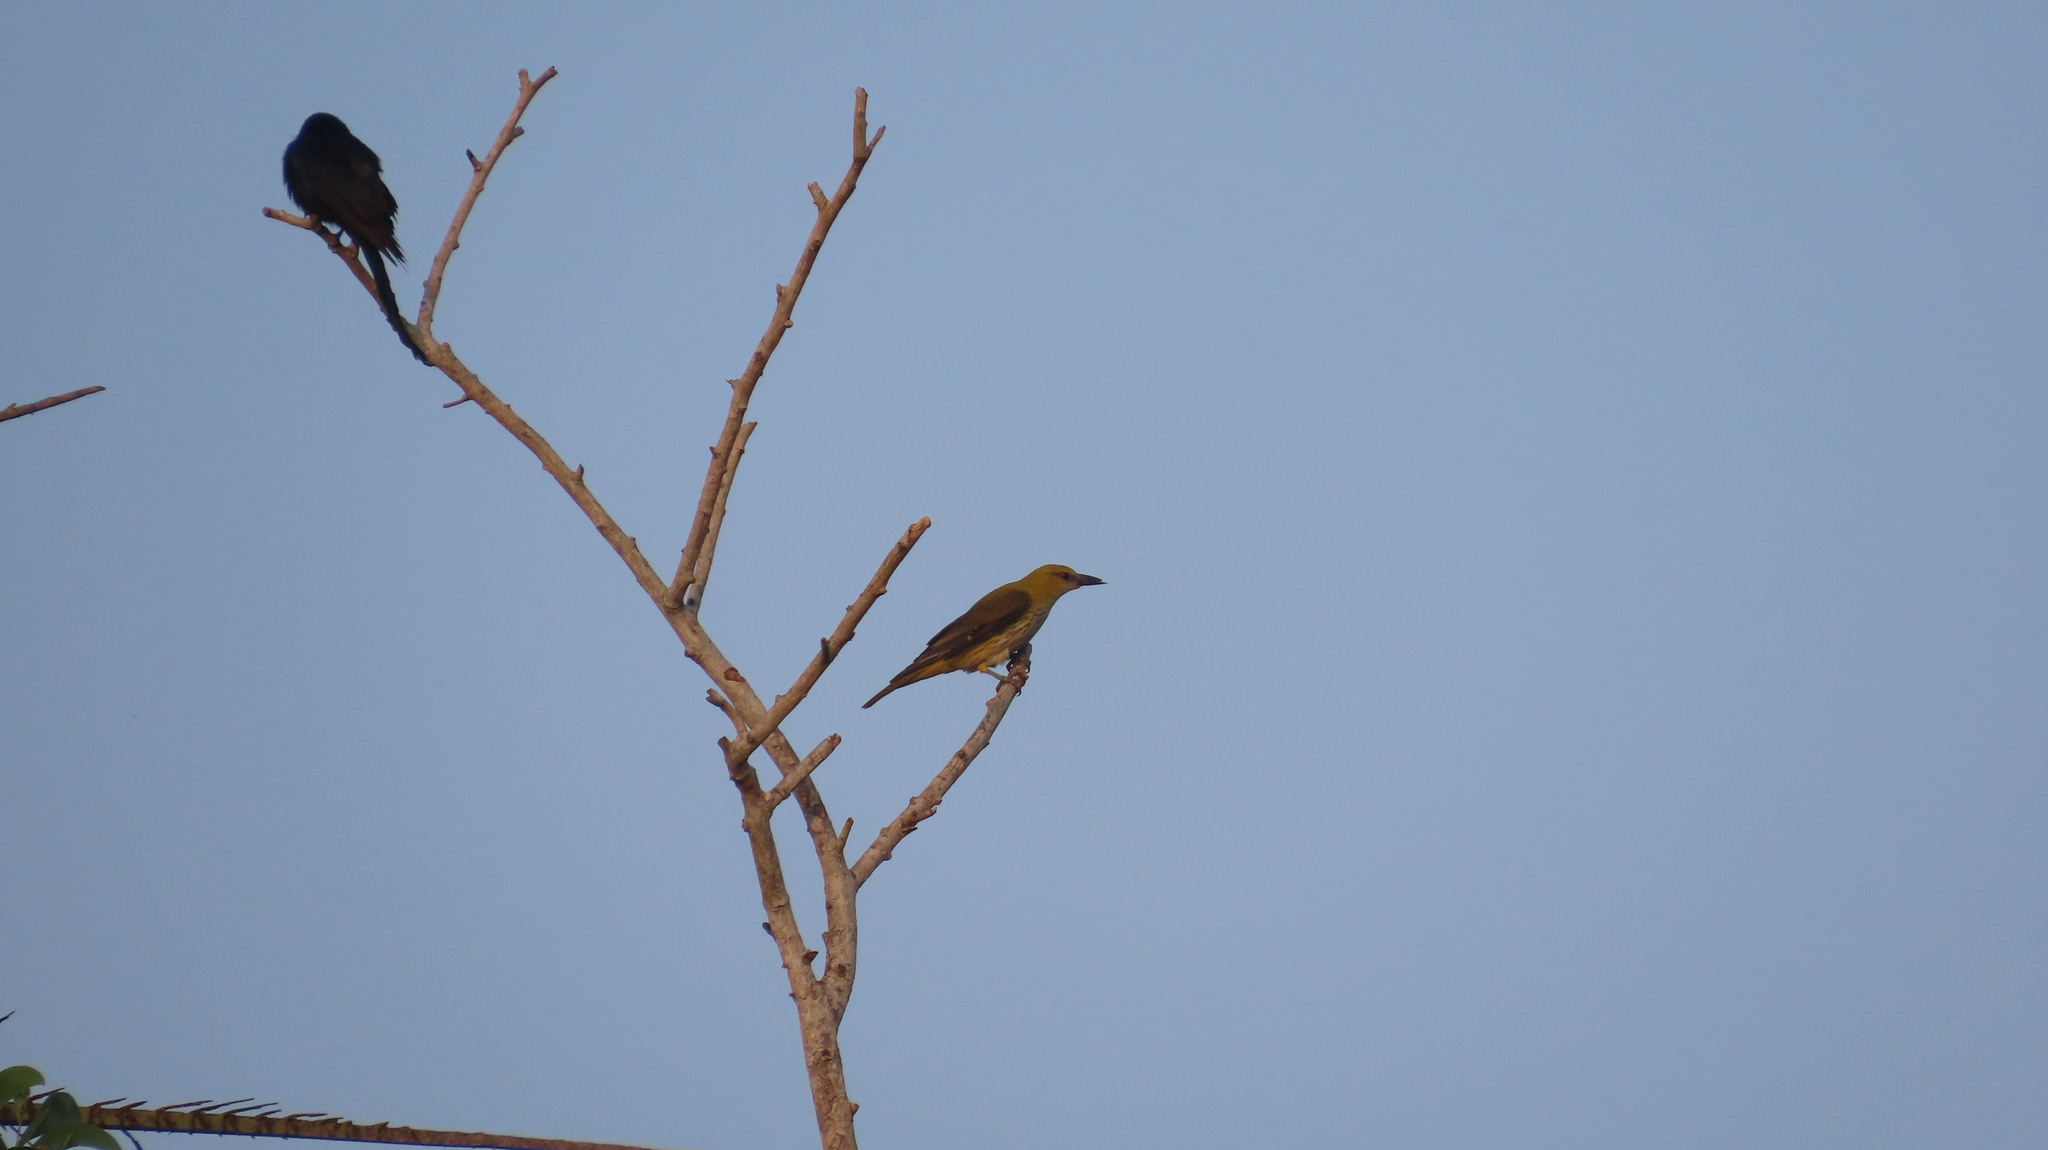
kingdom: Animalia
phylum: Chordata
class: Aves
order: Passeriformes
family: Dicruridae
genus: Dicrurus
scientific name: Dicrurus macrocercus
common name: Black drongo
